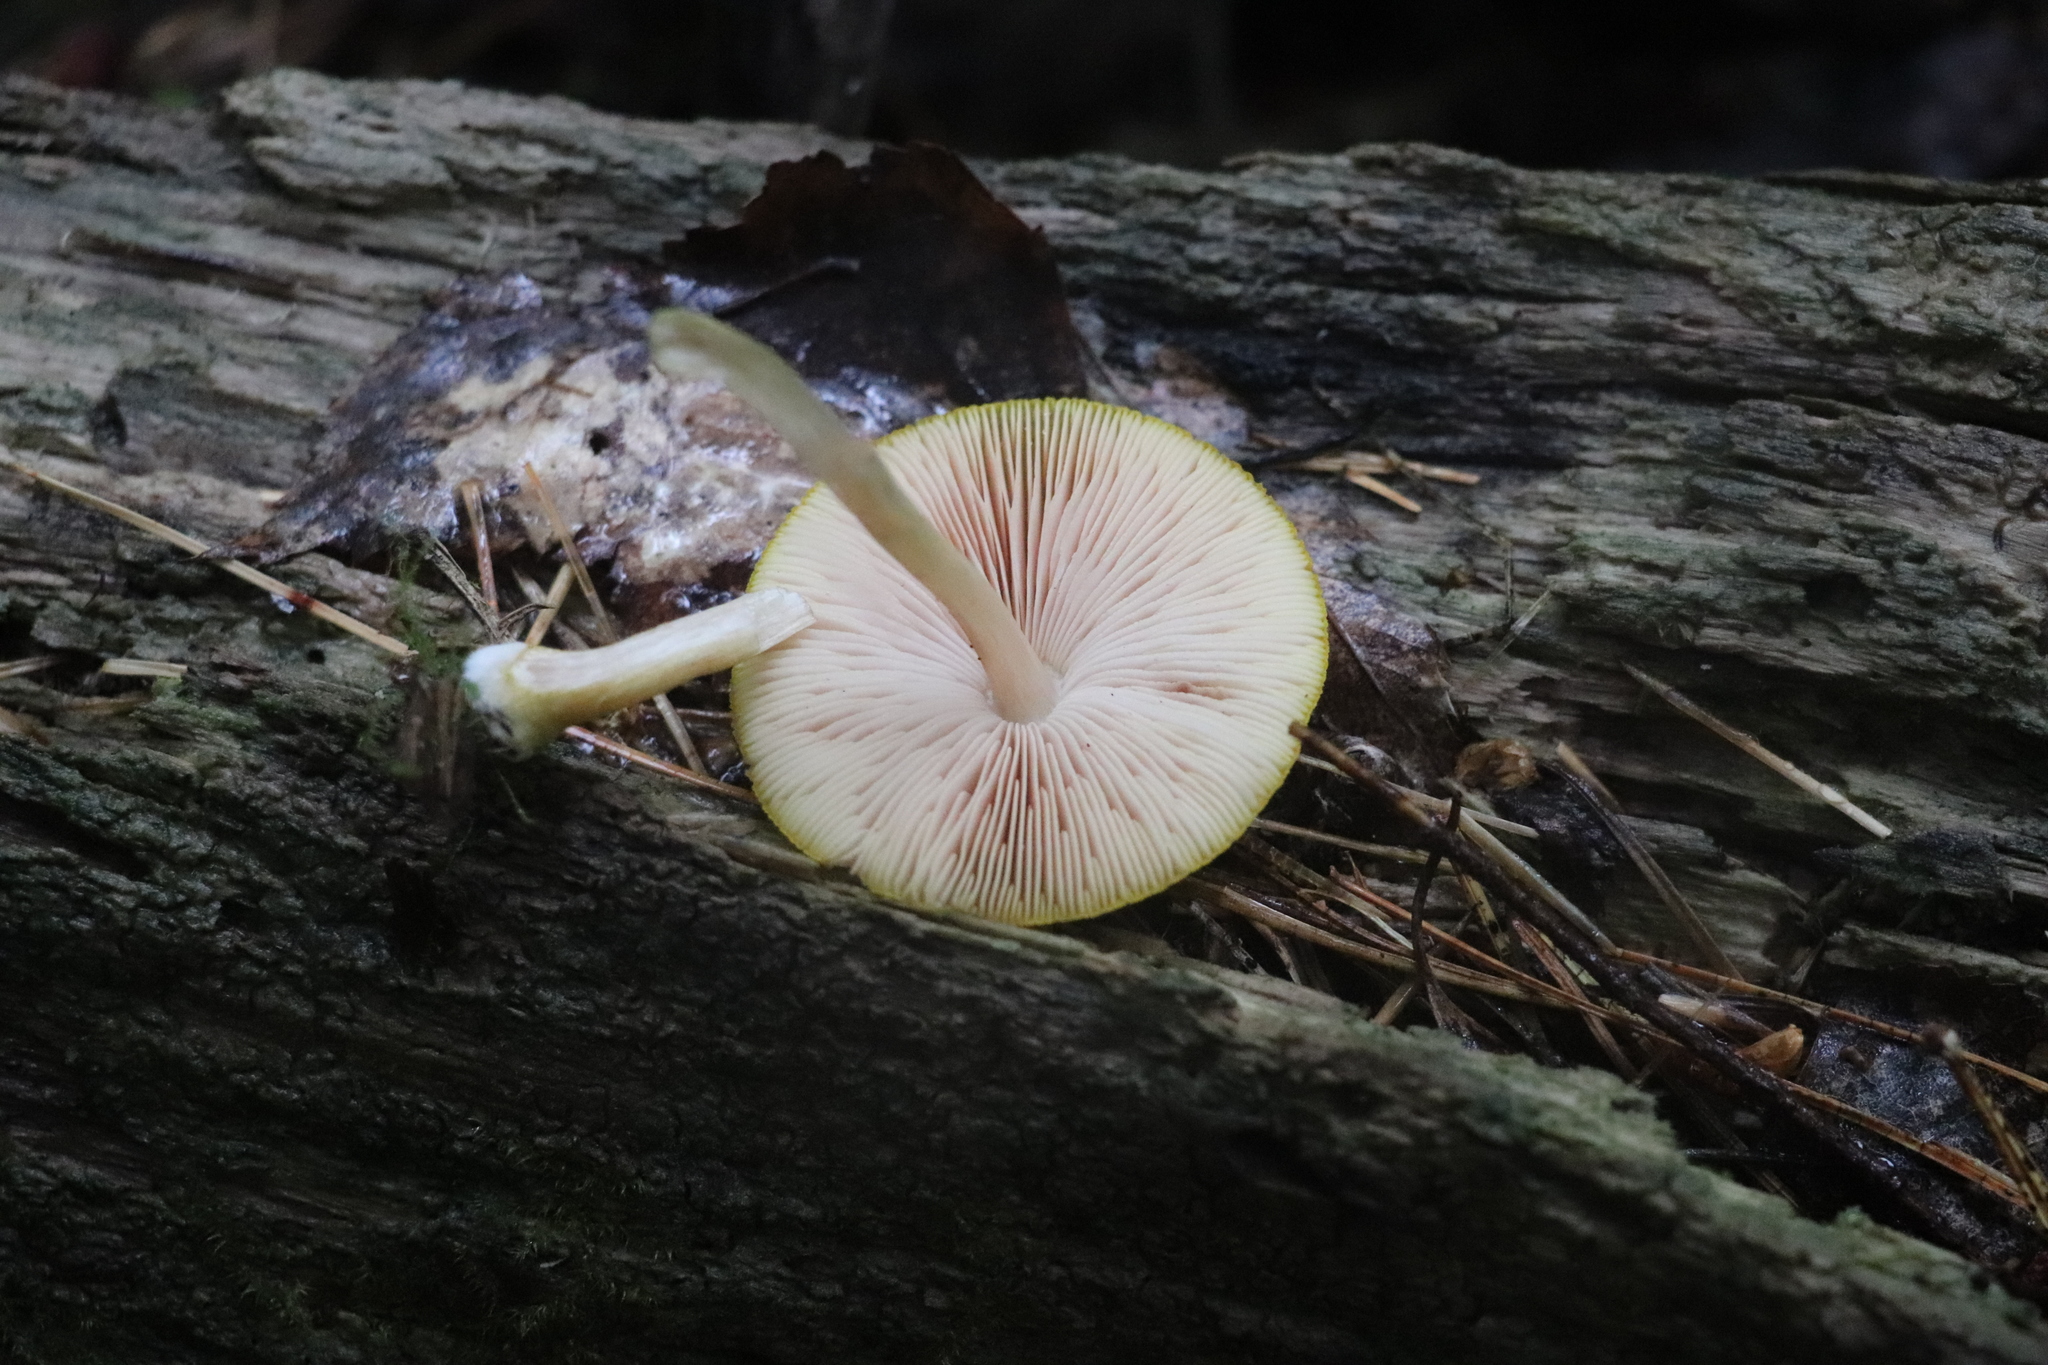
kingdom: Fungi
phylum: Basidiomycota
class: Agaricomycetes
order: Agaricales
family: Pluteaceae
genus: Pluteus
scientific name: Pluteus leoninus
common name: Lion shield
